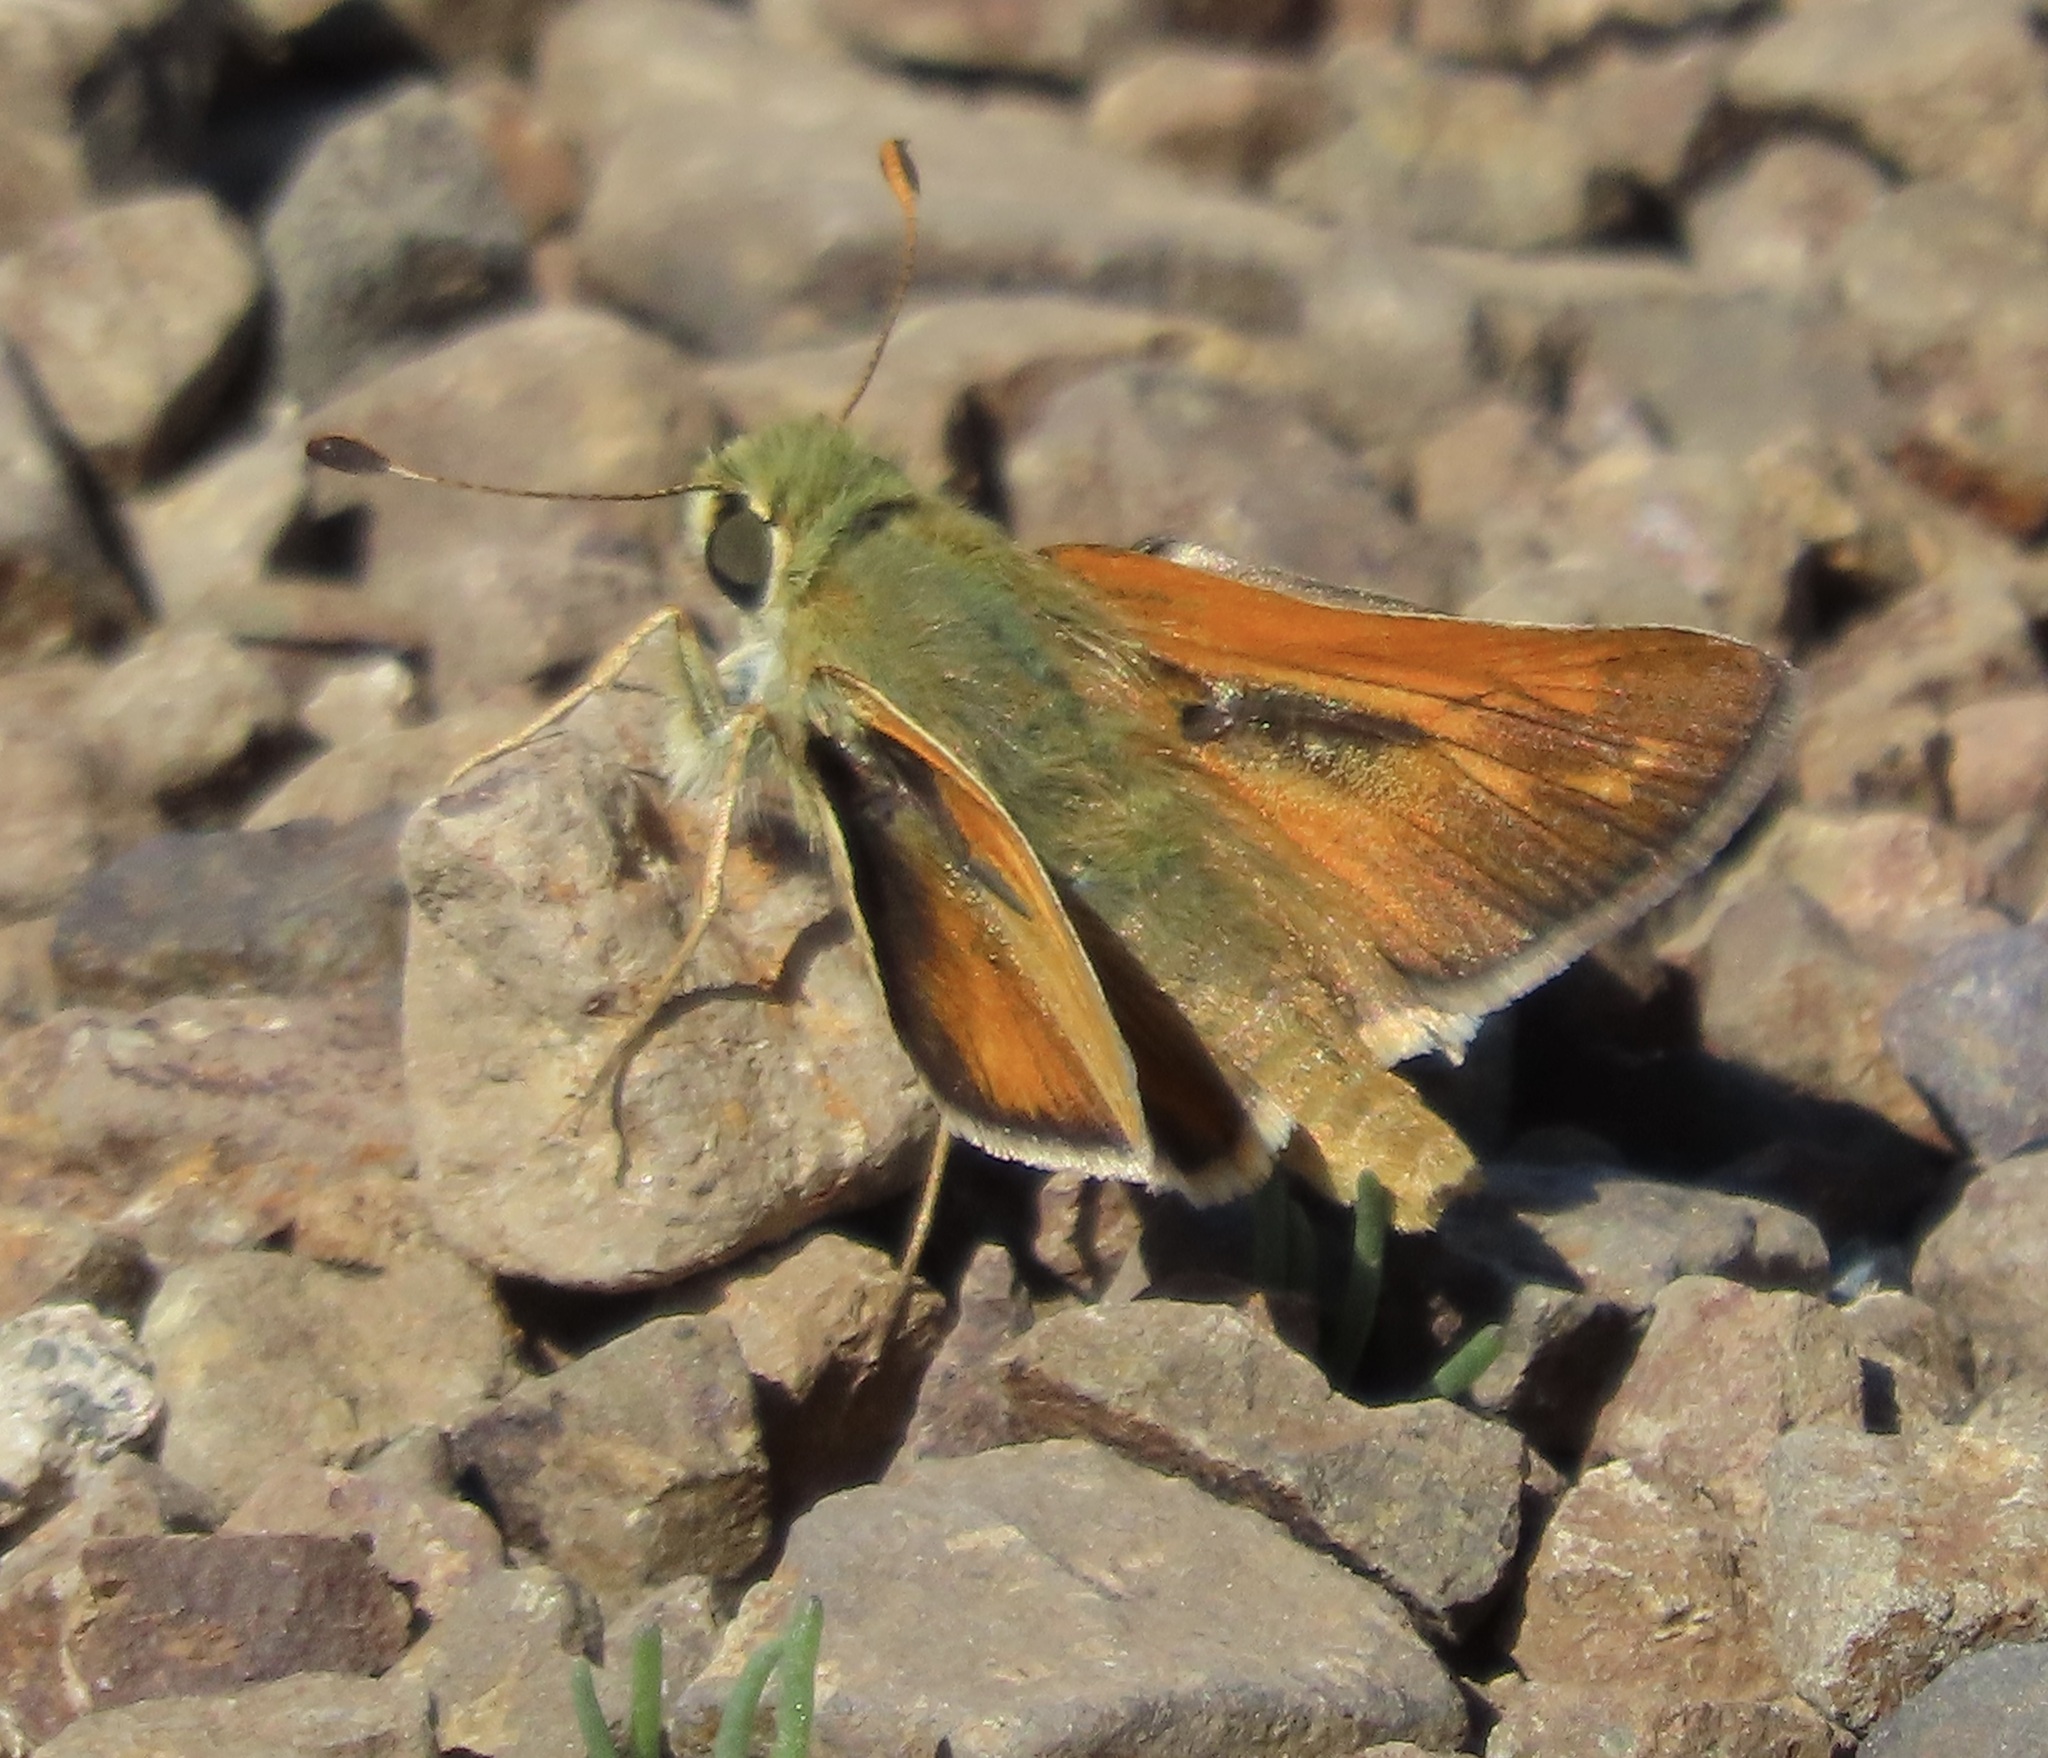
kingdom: Animalia
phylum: Arthropoda
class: Insecta
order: Lepidoptera
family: Hesperiidae
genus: Hesperia
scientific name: Hesperia columbia
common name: Columbian skipper
